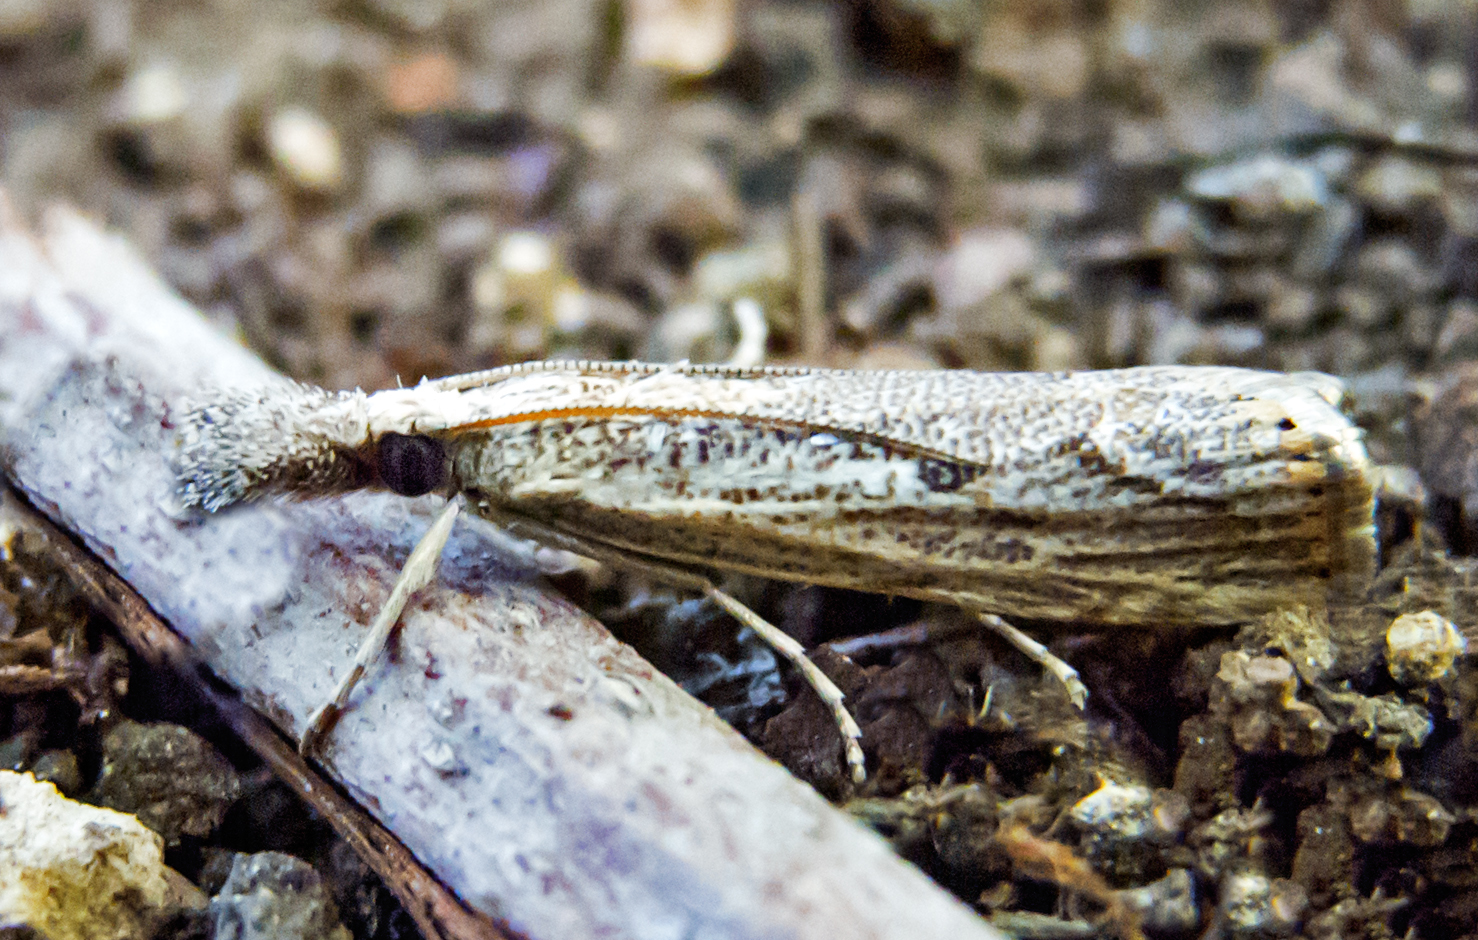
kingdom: Animalia
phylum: Arthropoda
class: Insecta
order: Lepidoptera
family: Crambidae
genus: Agriphila
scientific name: Agriphila tolli
